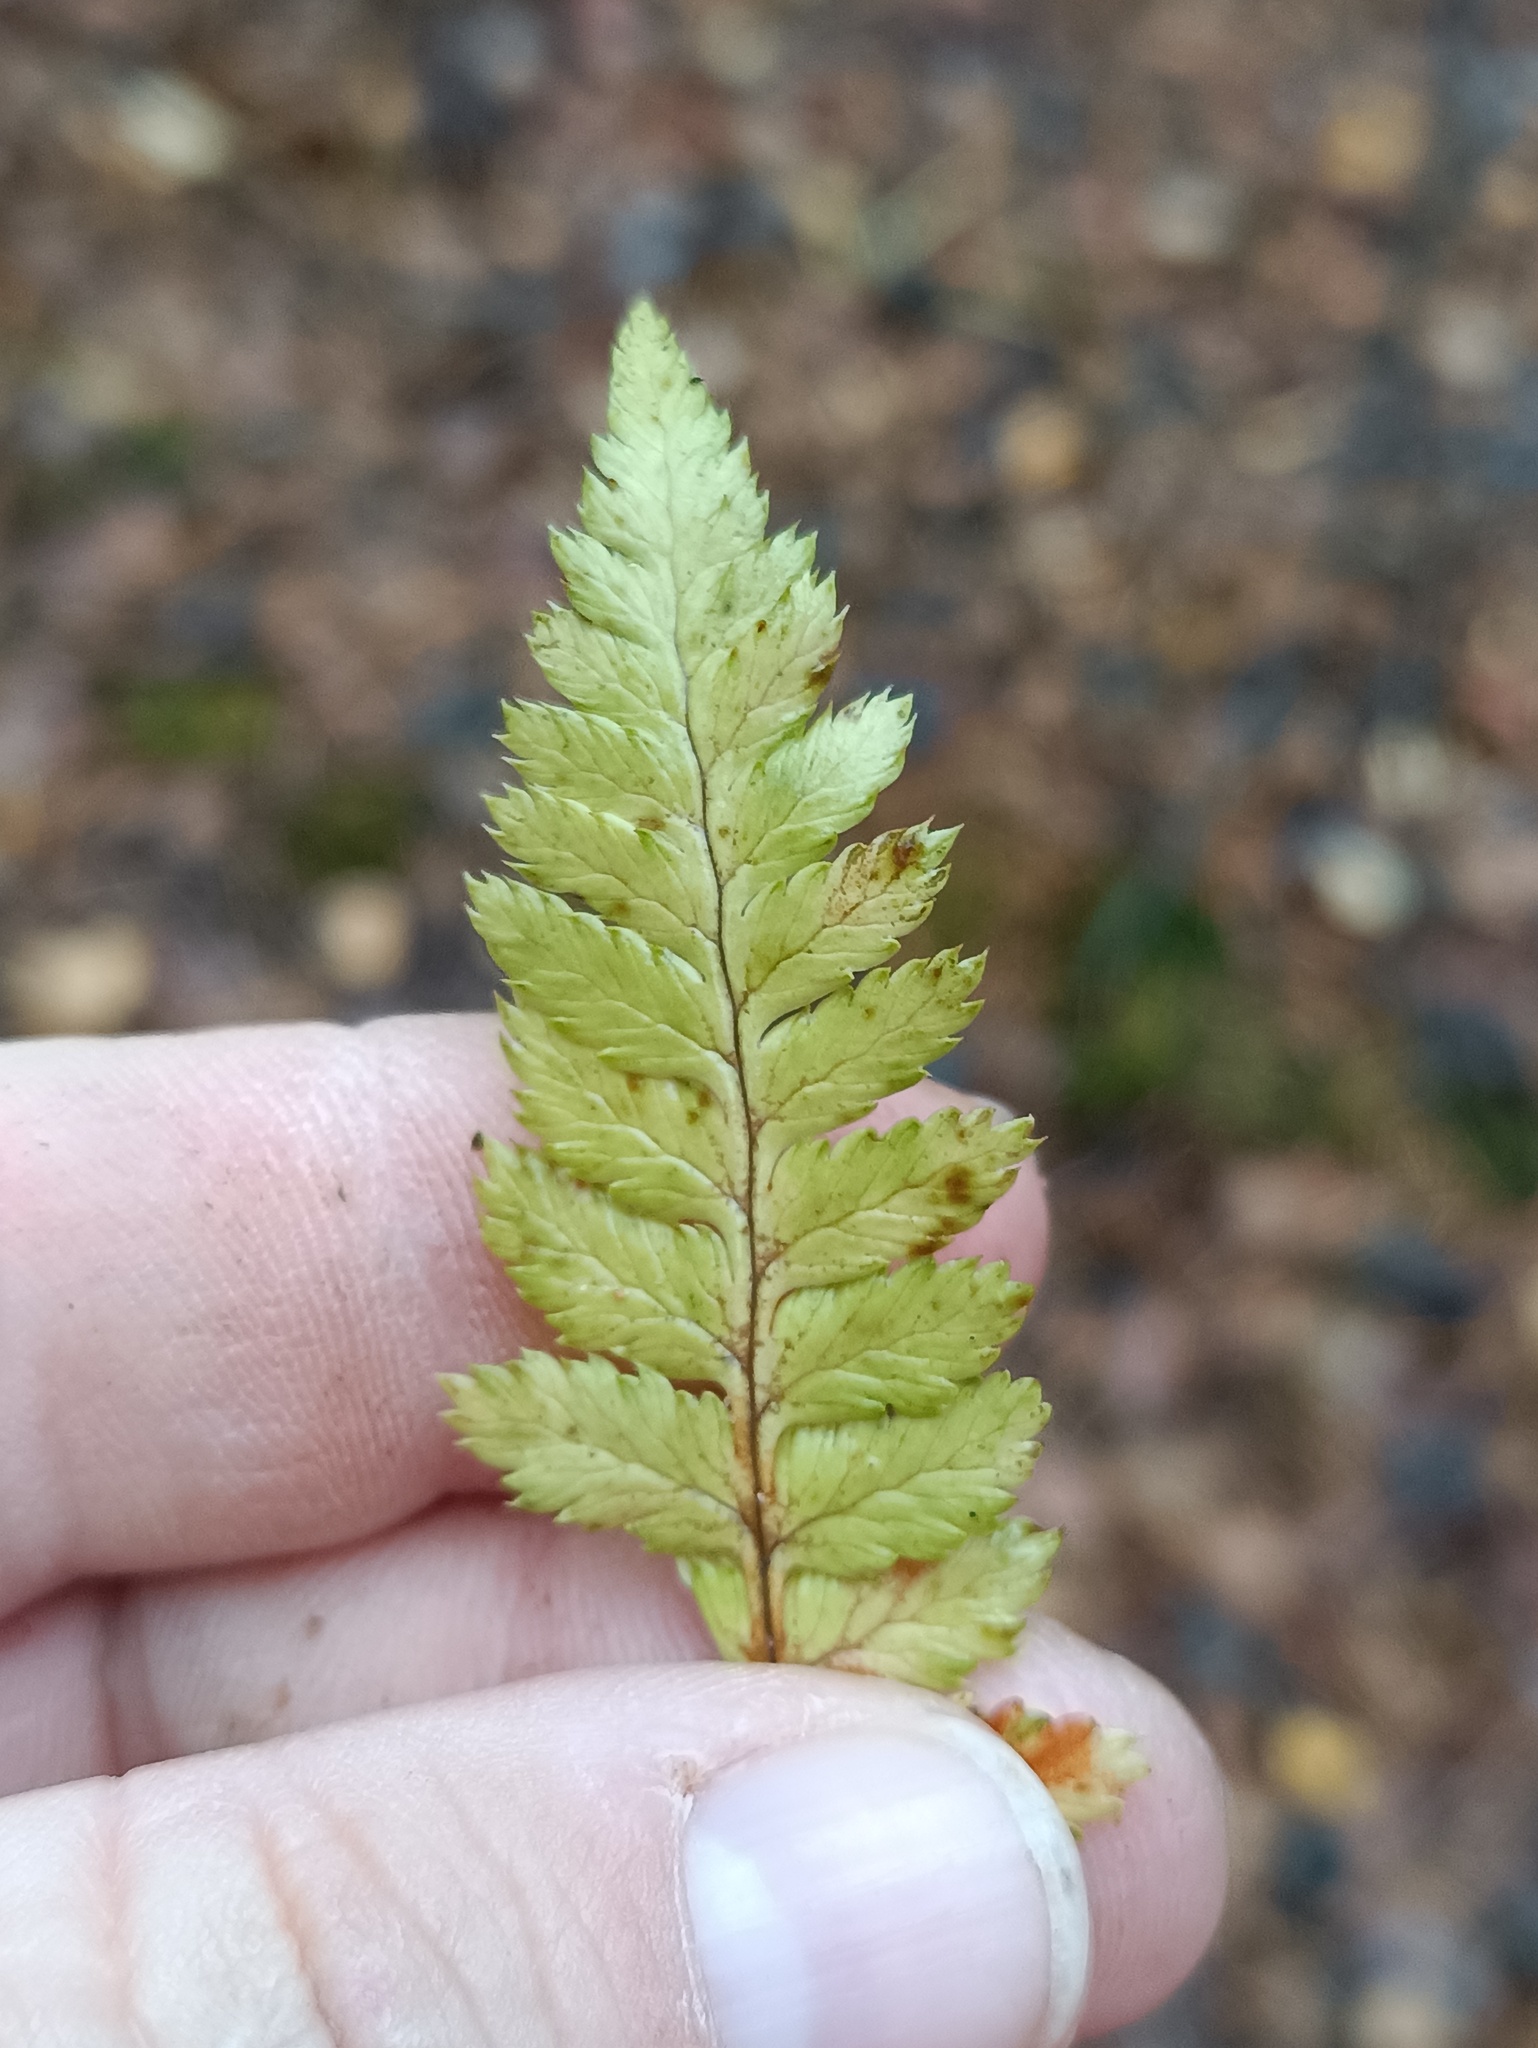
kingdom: Plantae
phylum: Tracheophyta
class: Polypodiopsida
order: Polypodiales
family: Dryopteridaceae
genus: Dryopteris
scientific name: Dryopteris carthusiana
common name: Narrow buckler-fern
